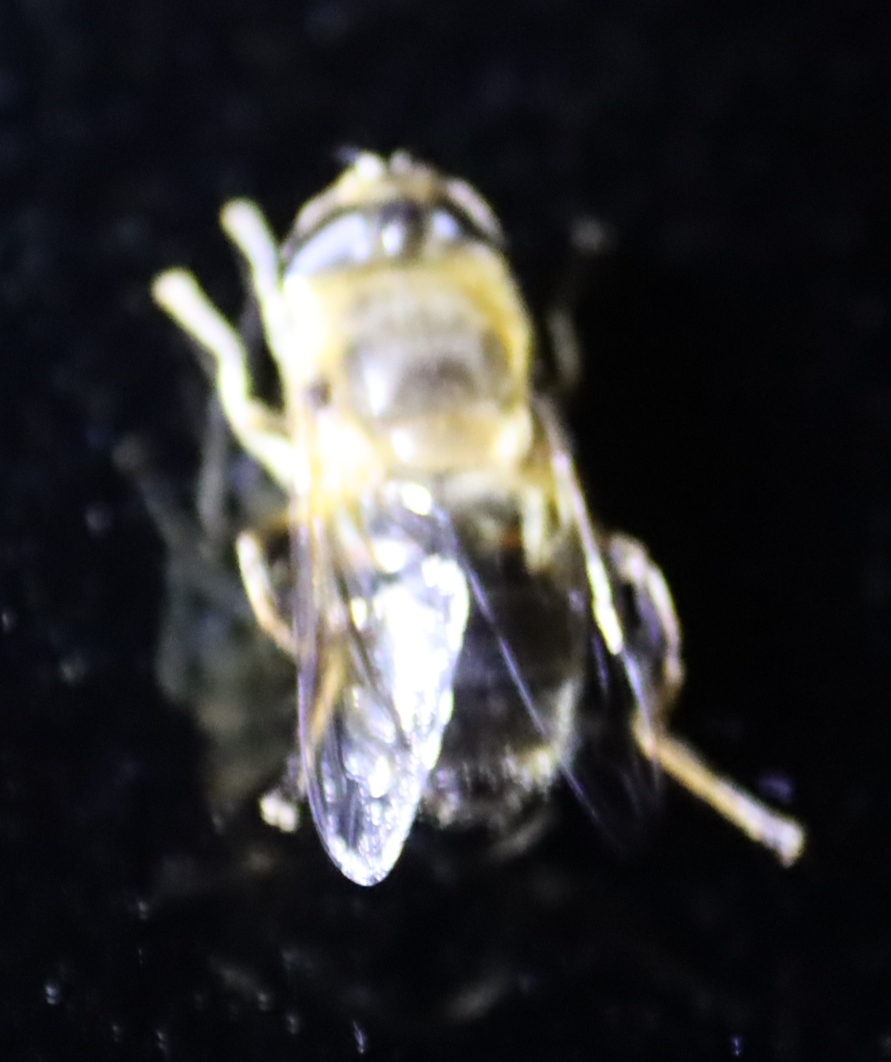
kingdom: Animalia
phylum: Arthropoda
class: Insecta
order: Diptera
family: Syrphidae
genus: Eristalis
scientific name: Eristalis tenax
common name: Drone fly
